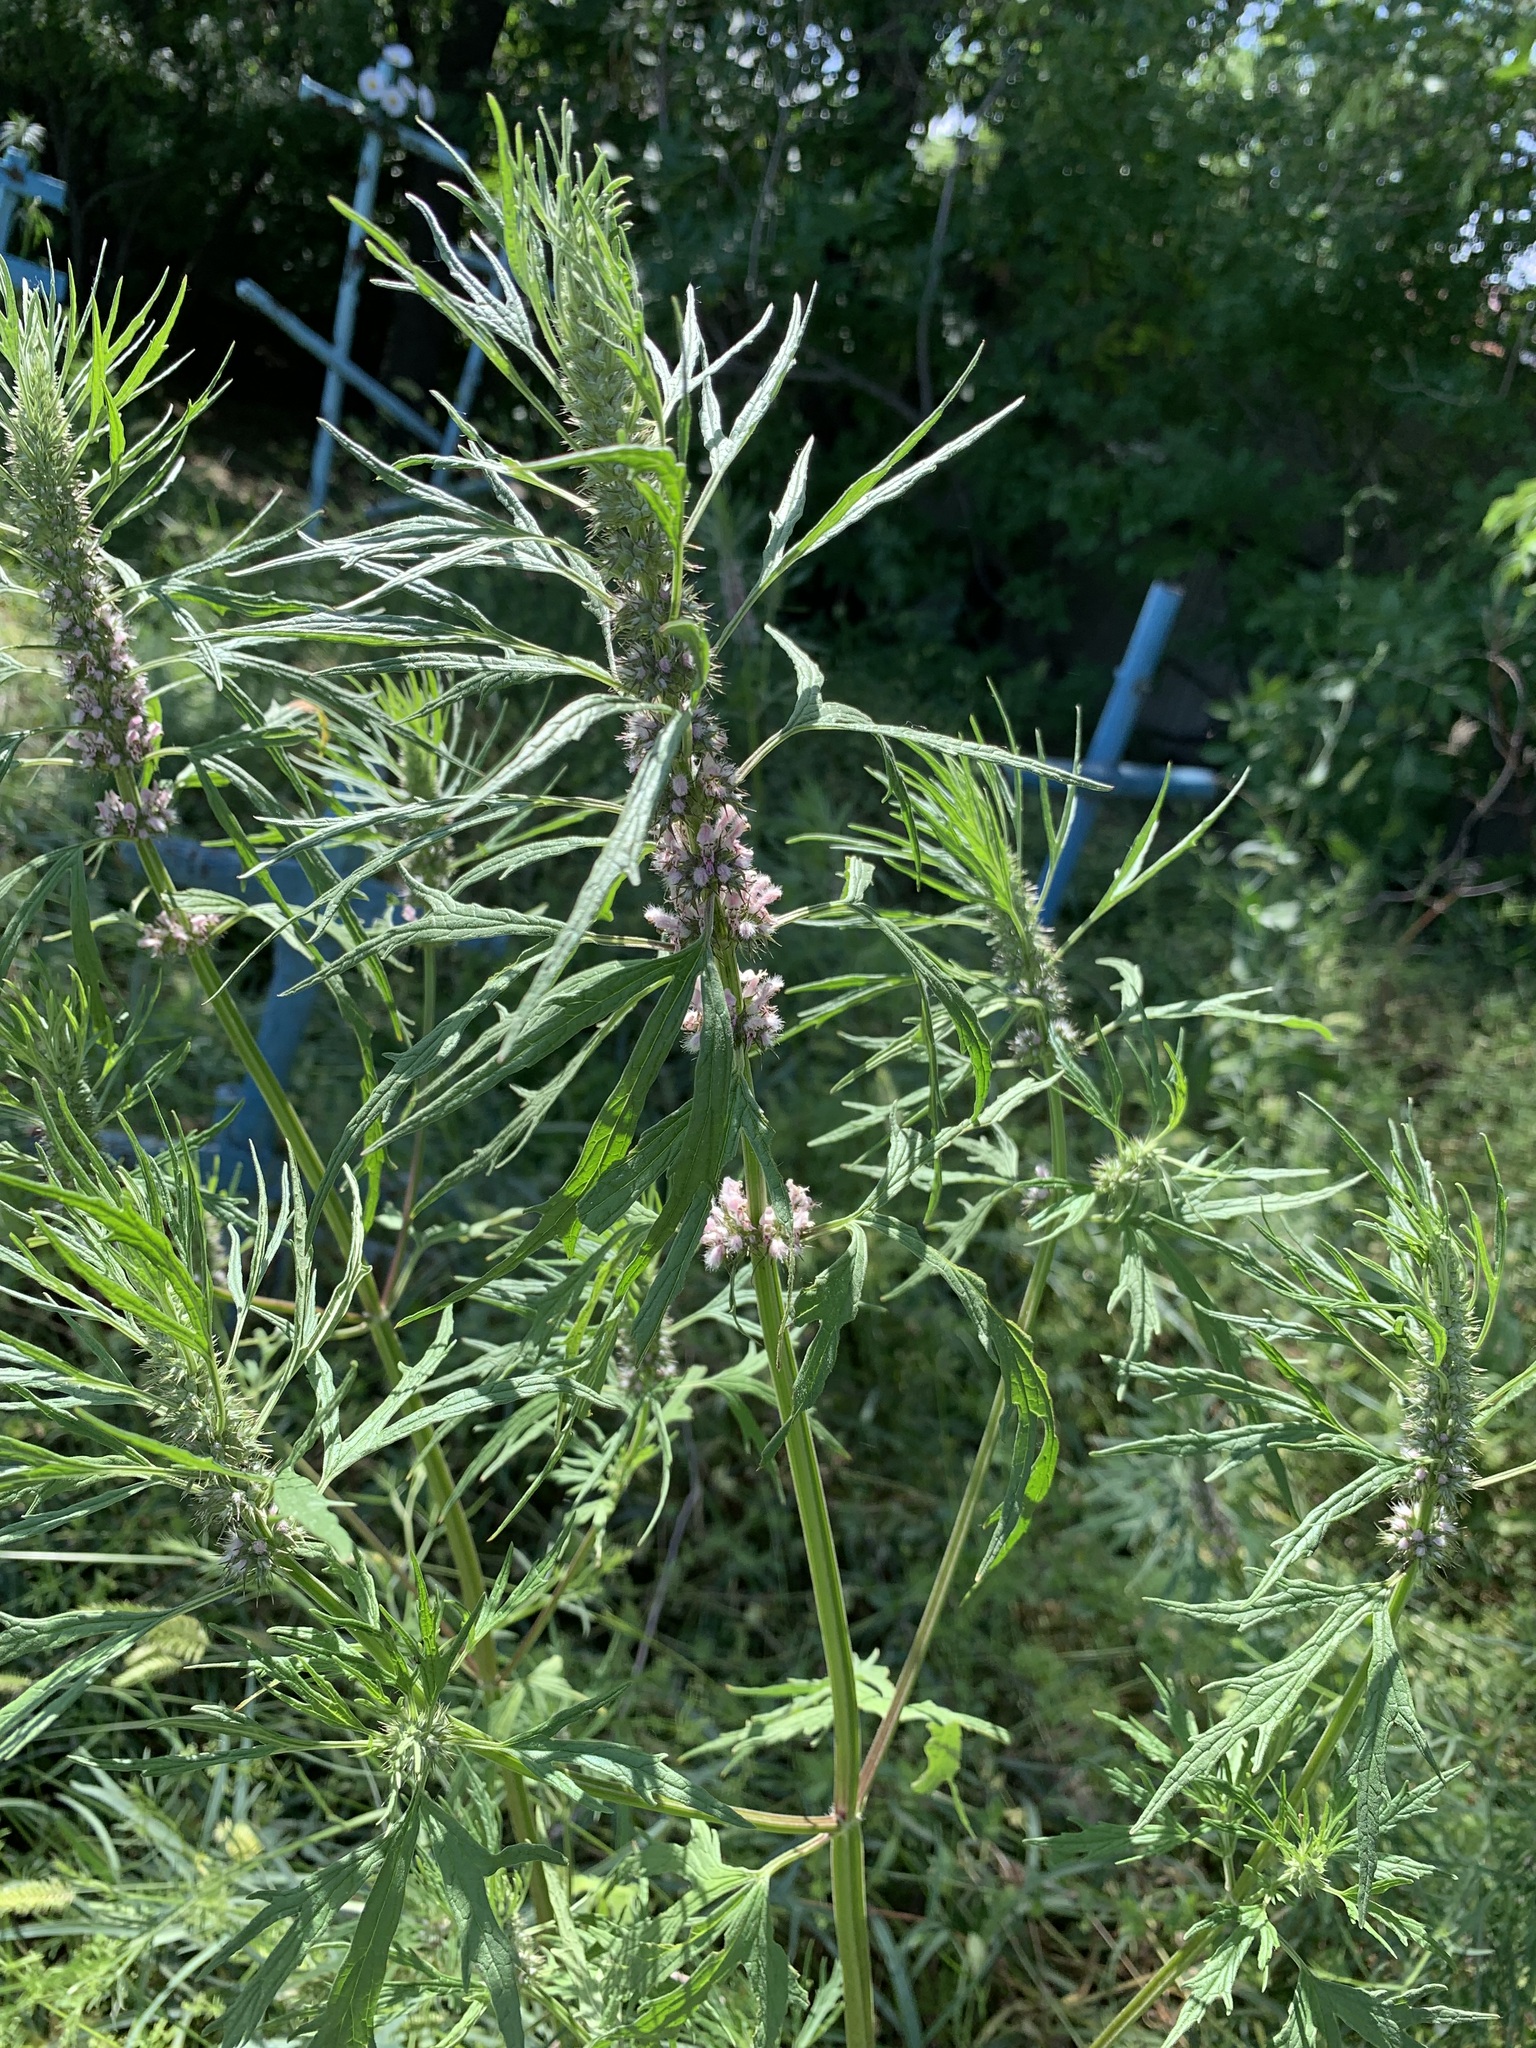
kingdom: Plantae
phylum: Tracheophyta
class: Magnoliopsida
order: Lamiales
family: Lamiaceae
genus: Leonurus
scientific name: Leonurus glaucescens
